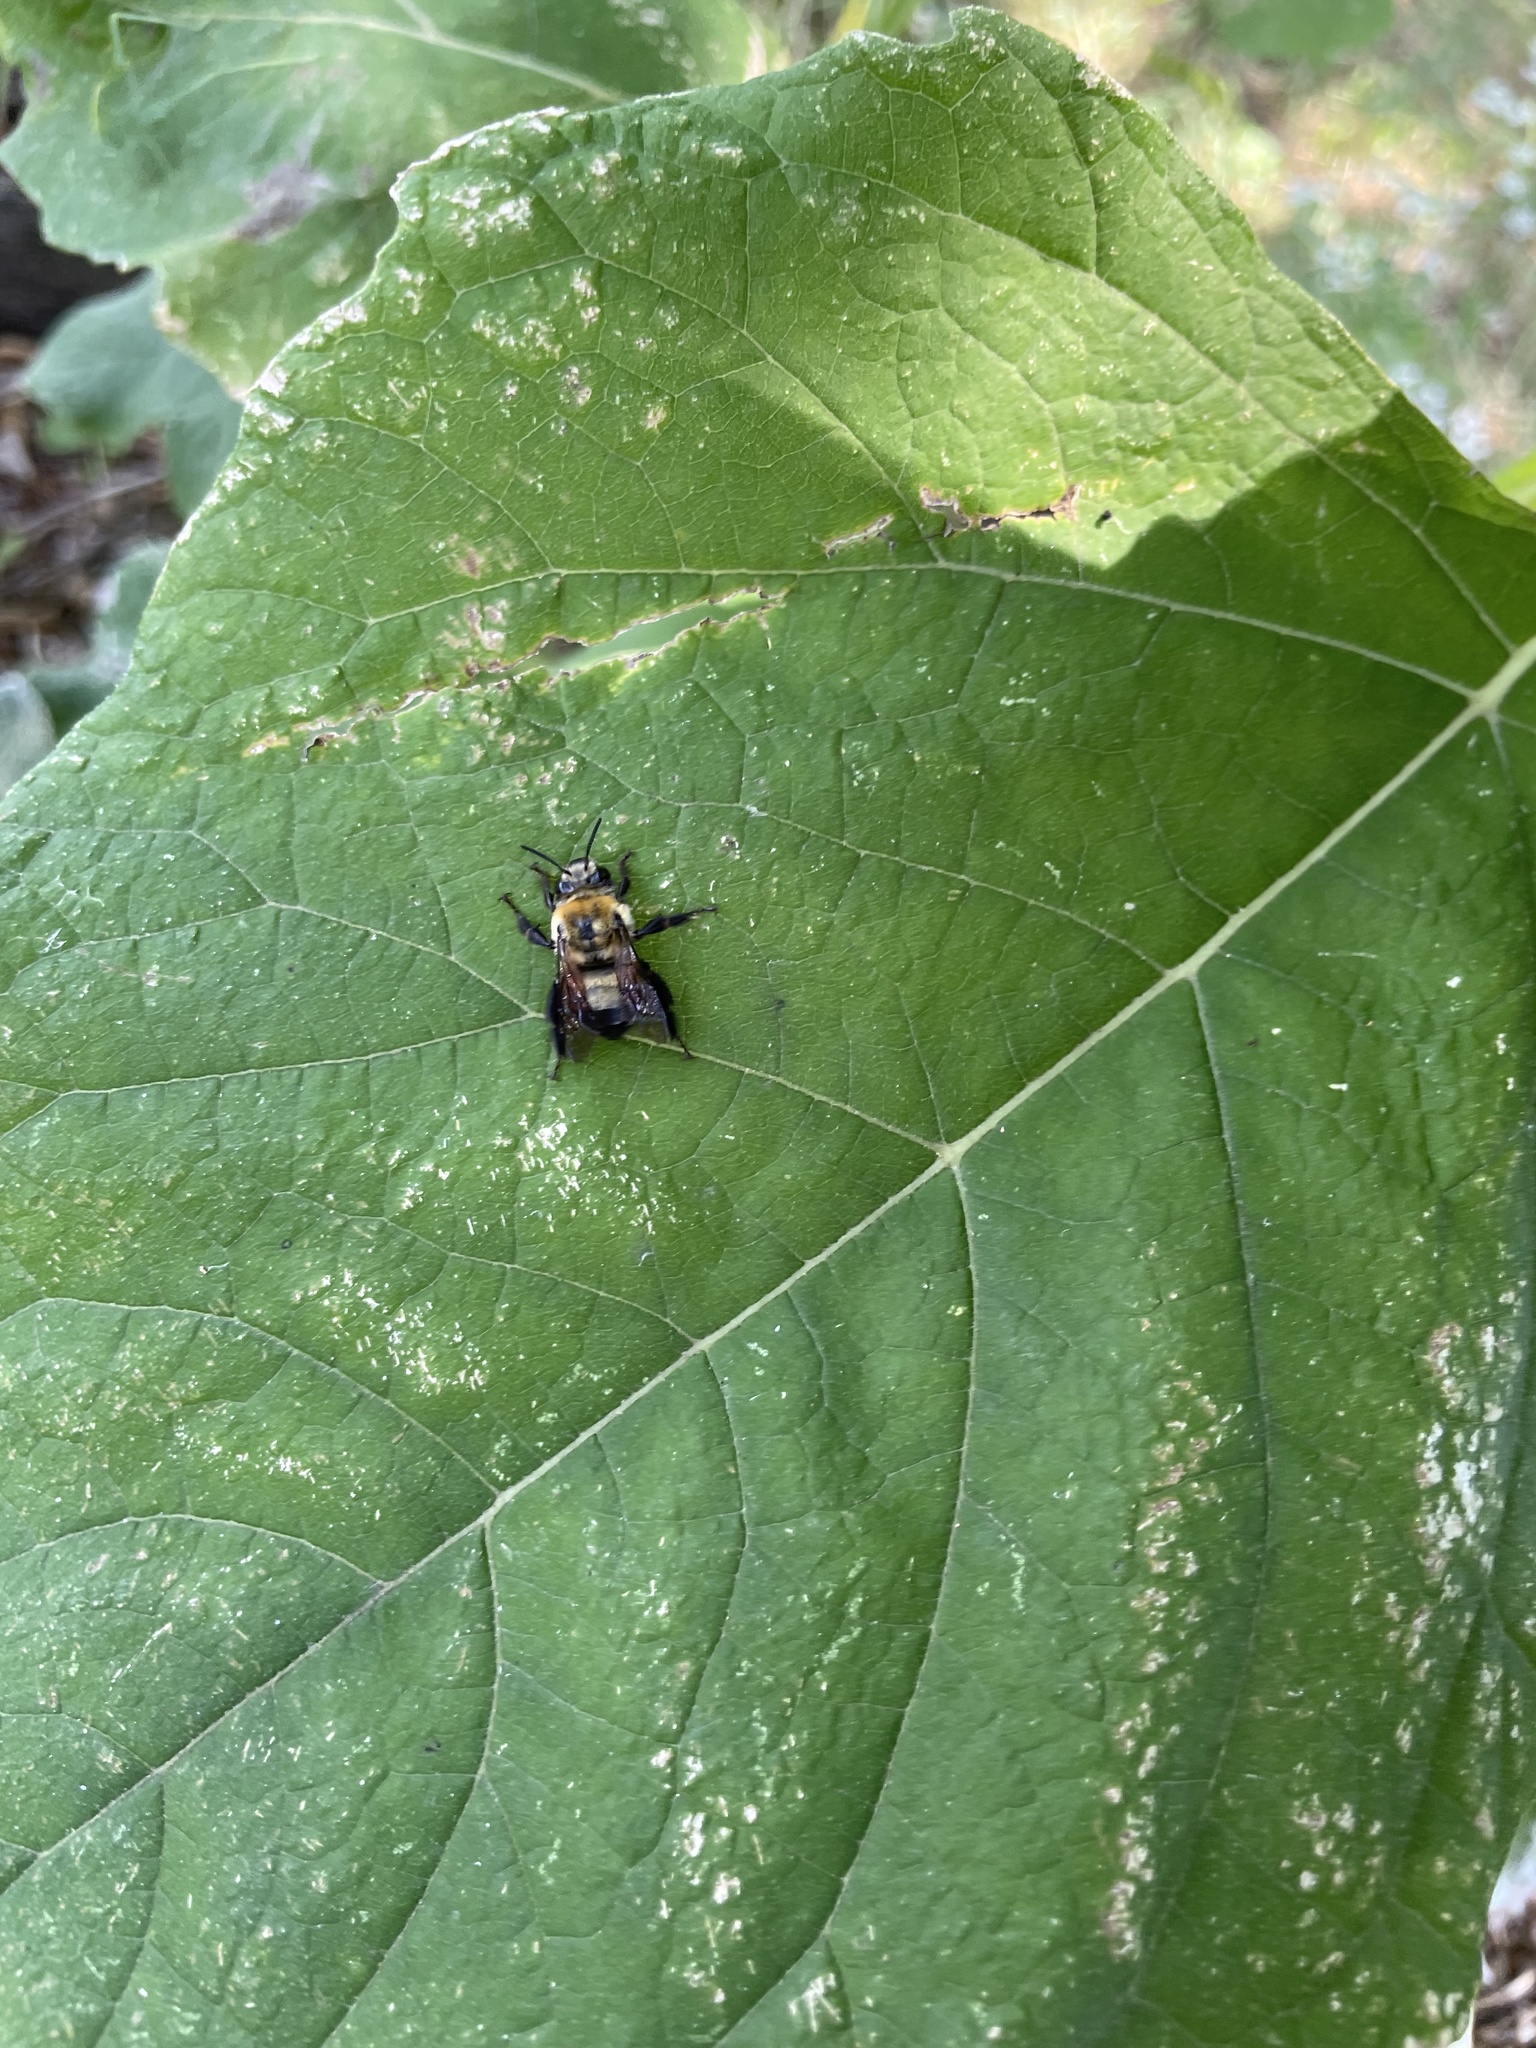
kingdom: Animalia
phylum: Arthropoda
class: Insecta
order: Hymenoptera
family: Apidae
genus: Anthophora
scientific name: Anthophora bomboides
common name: Bumble-bee-mimic digger bee
